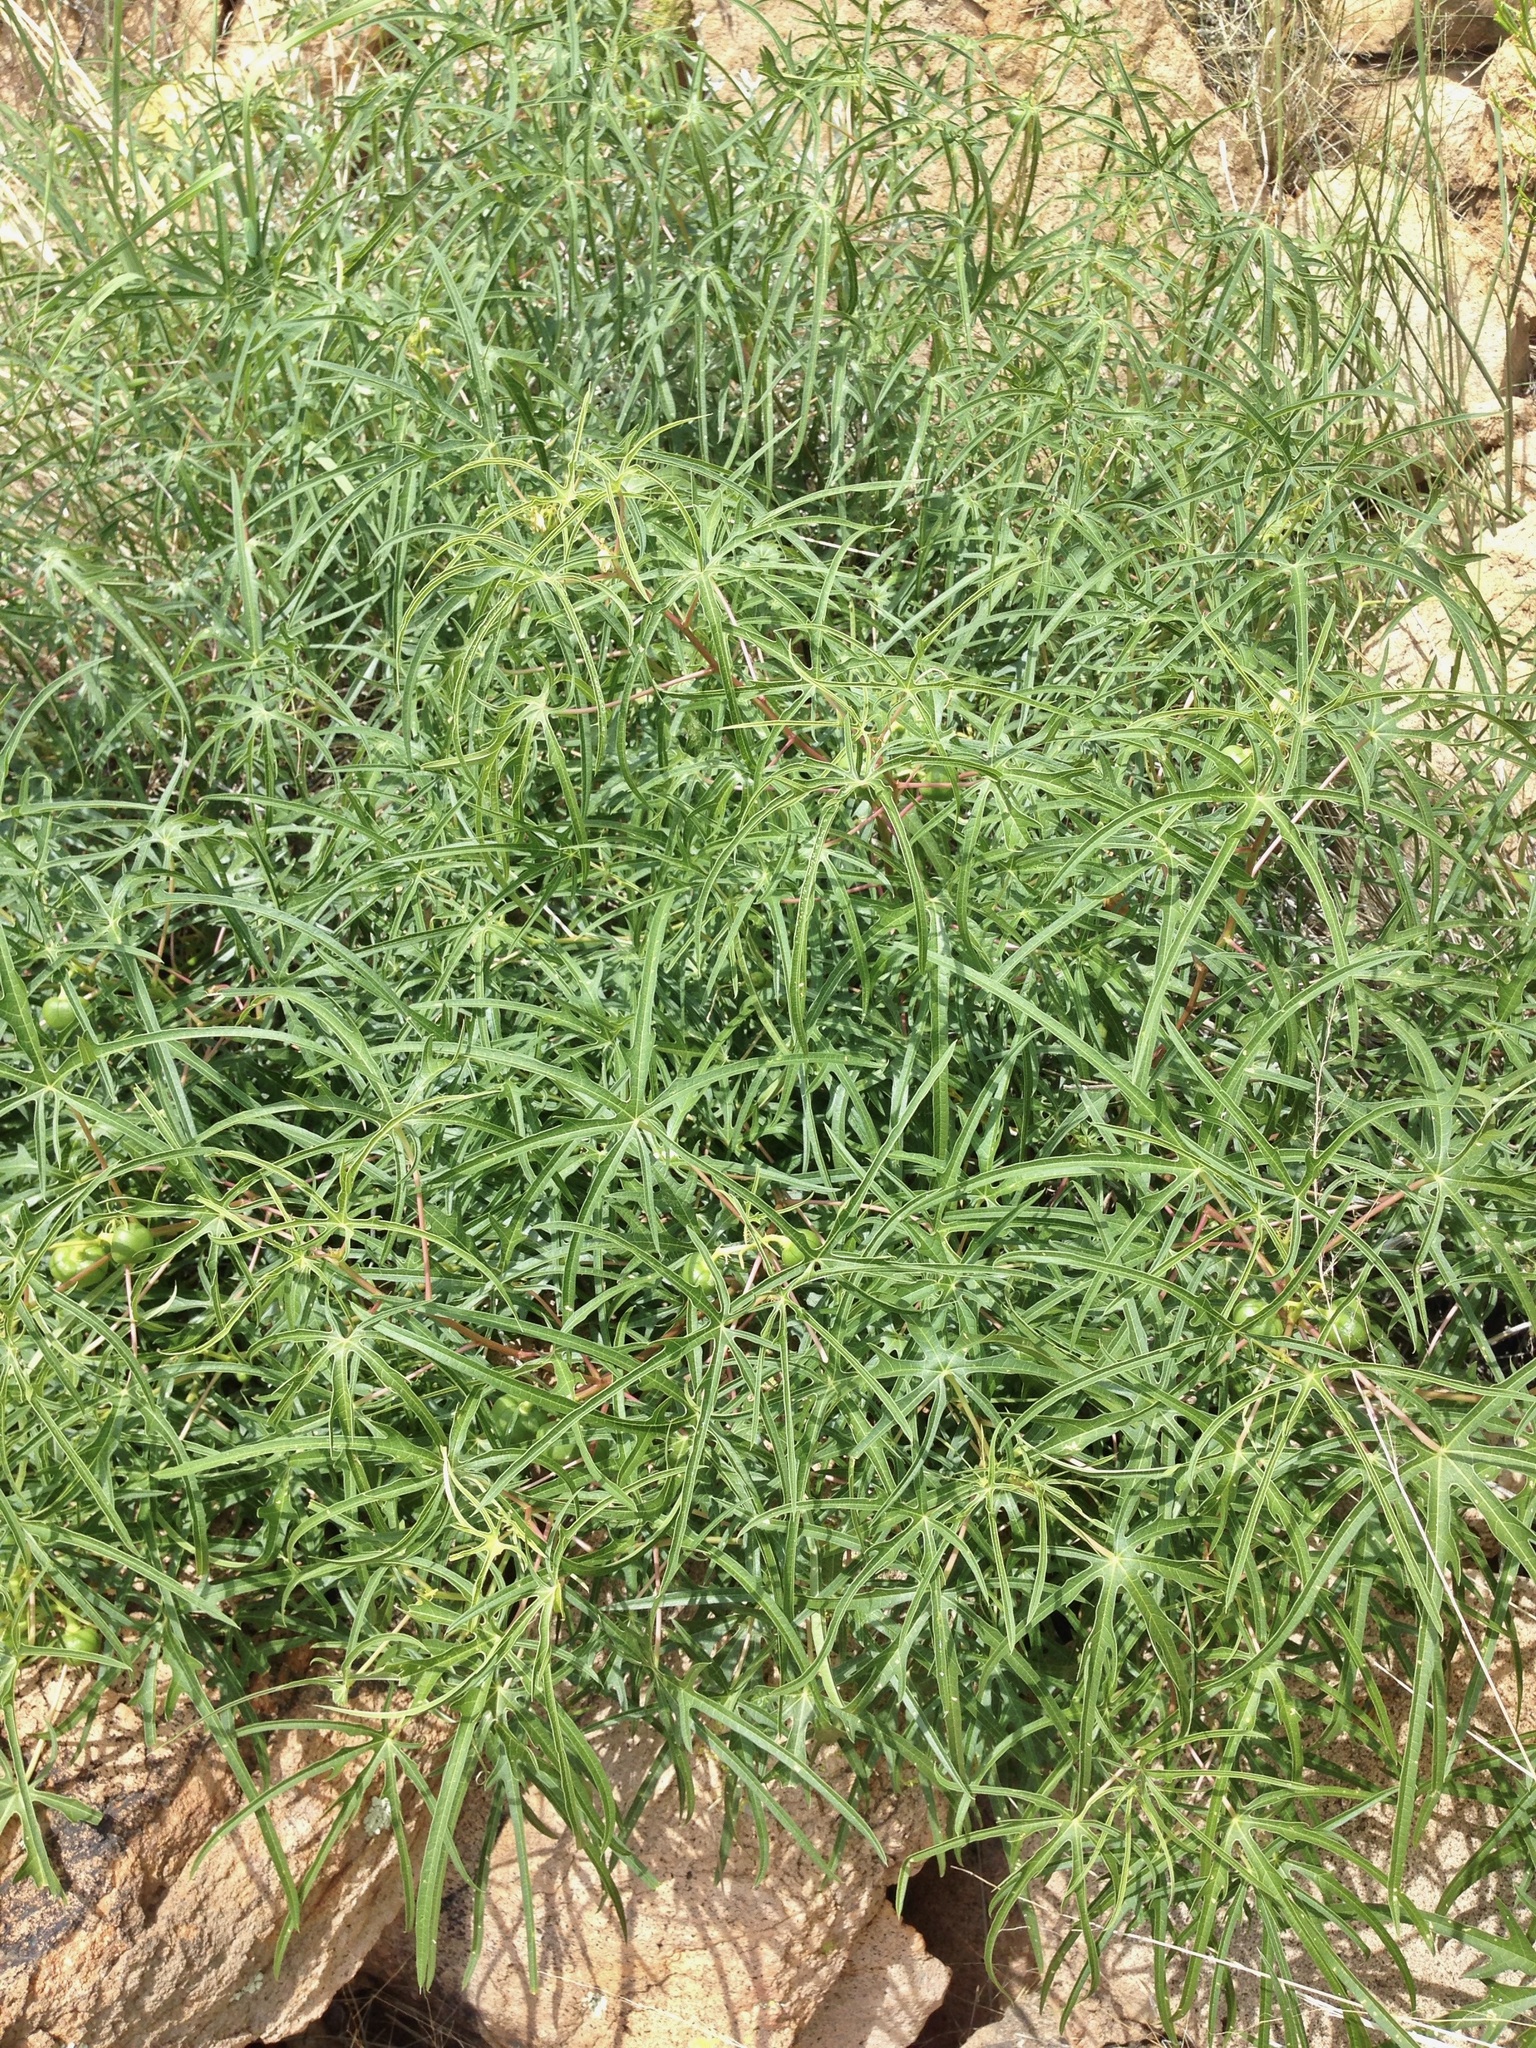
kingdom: Plantae
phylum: Tracheophyta
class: Magnoliopsida
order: Malpighiales
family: Euphorbiaceae
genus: Manihot
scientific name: Manihot angustiloba
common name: Desert mountain manihot
